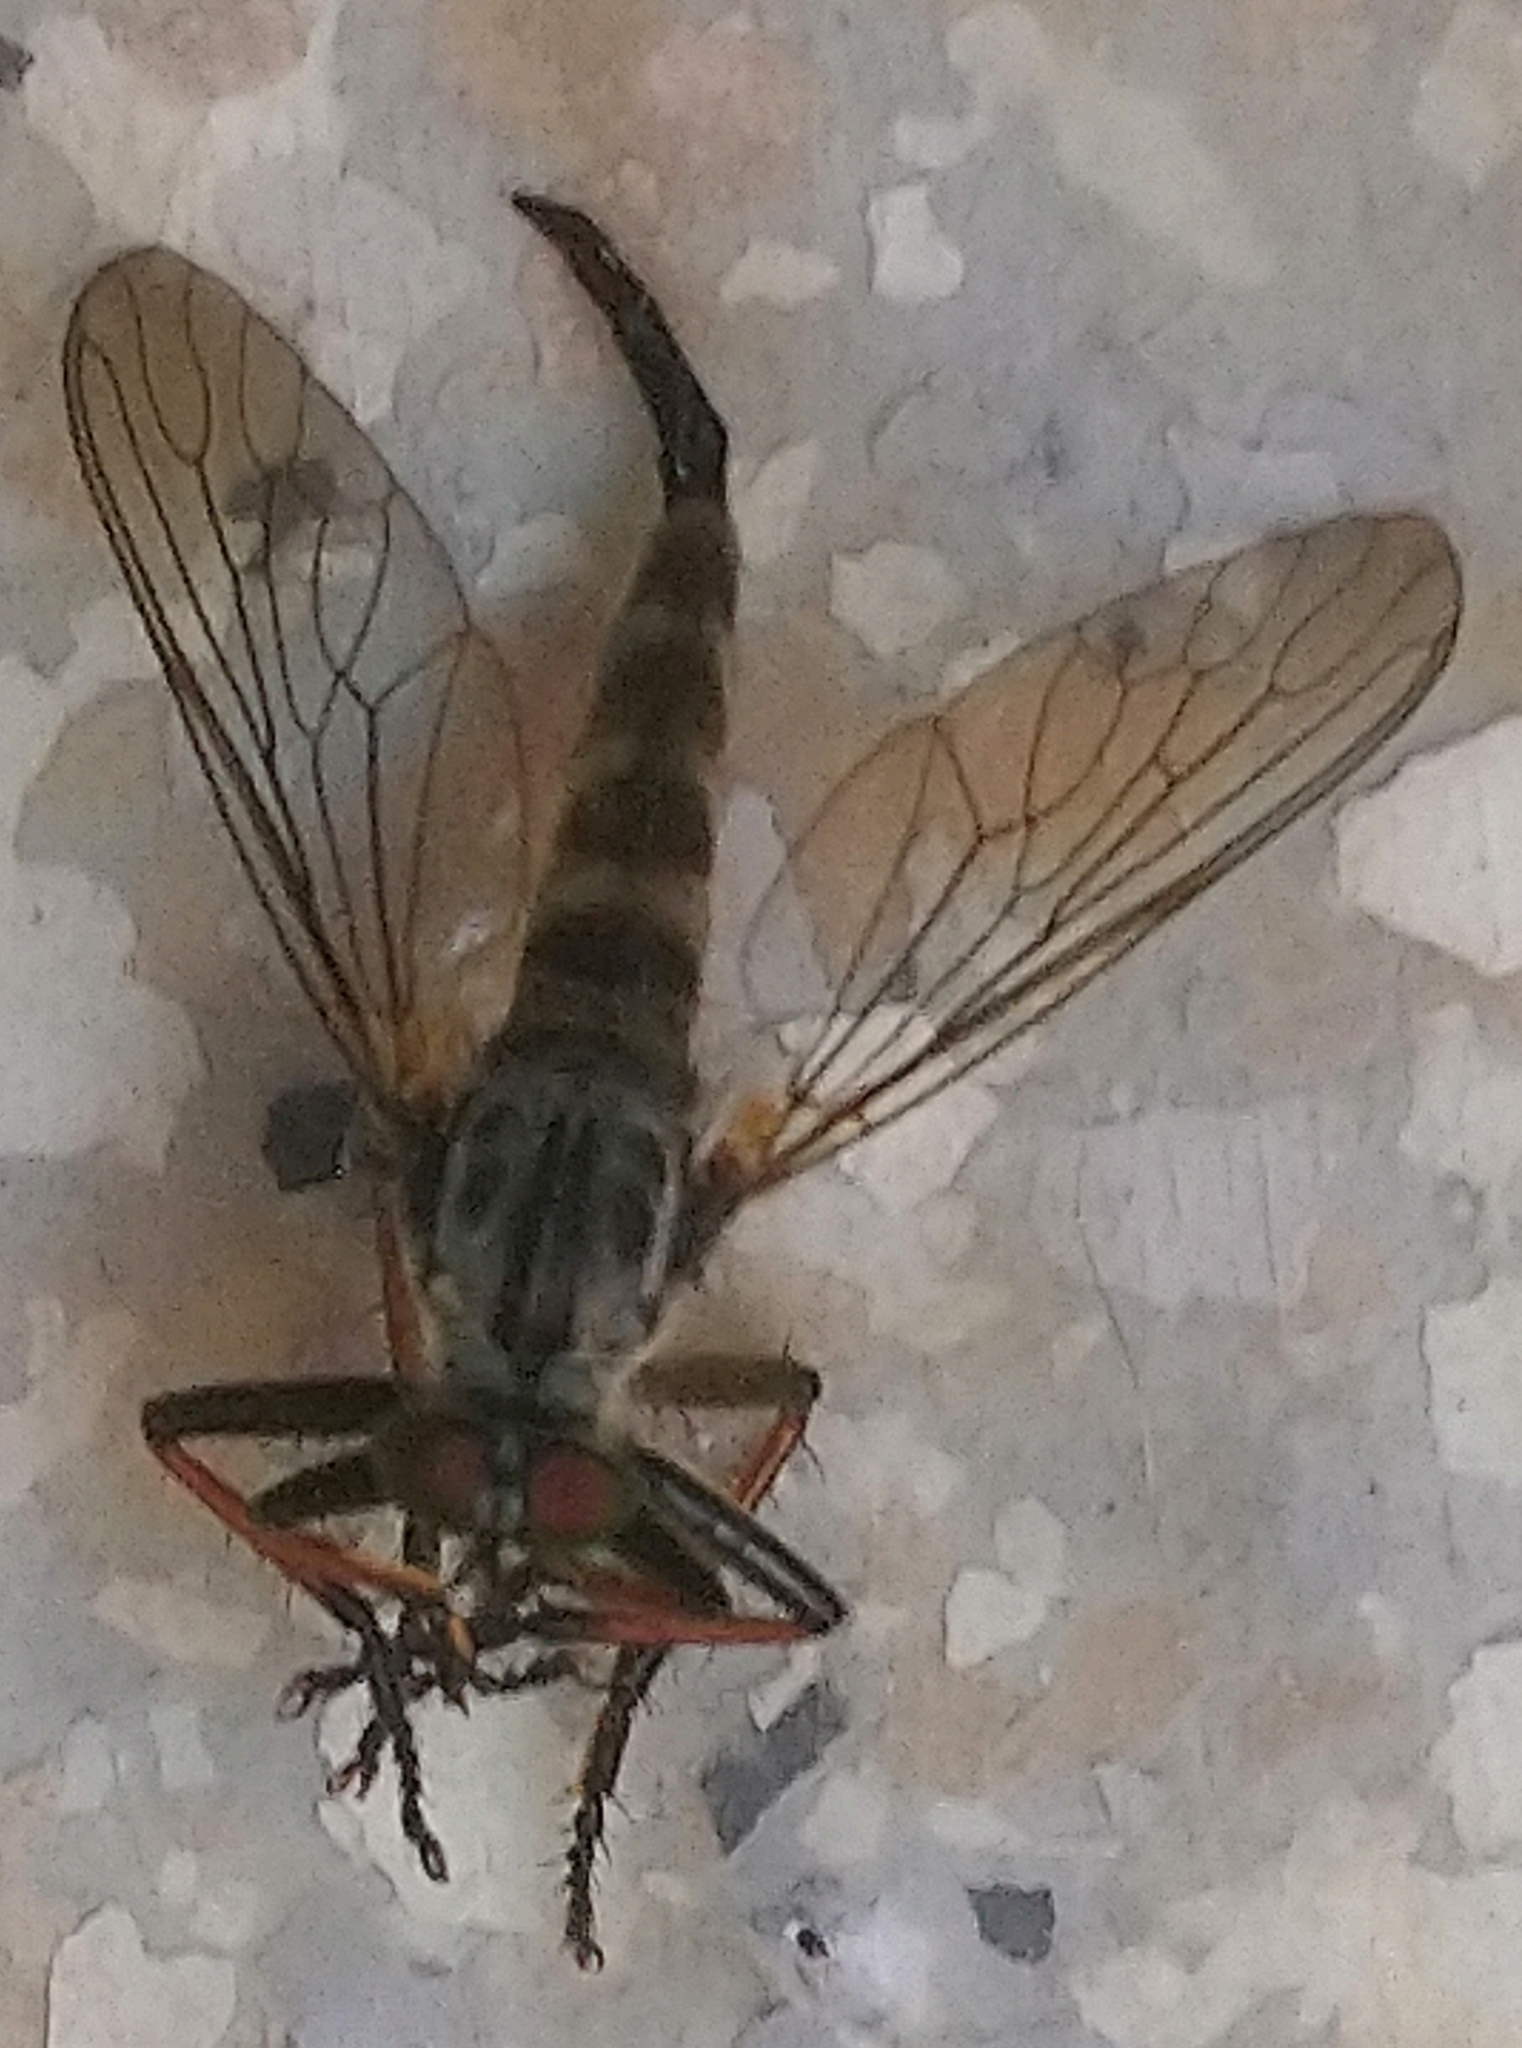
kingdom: Animalia
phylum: Arthropoda
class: Insecta
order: Diptera
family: Asilidae
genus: Neoitamus
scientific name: Neoitamus cyanurus
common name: Common awl robberfly
